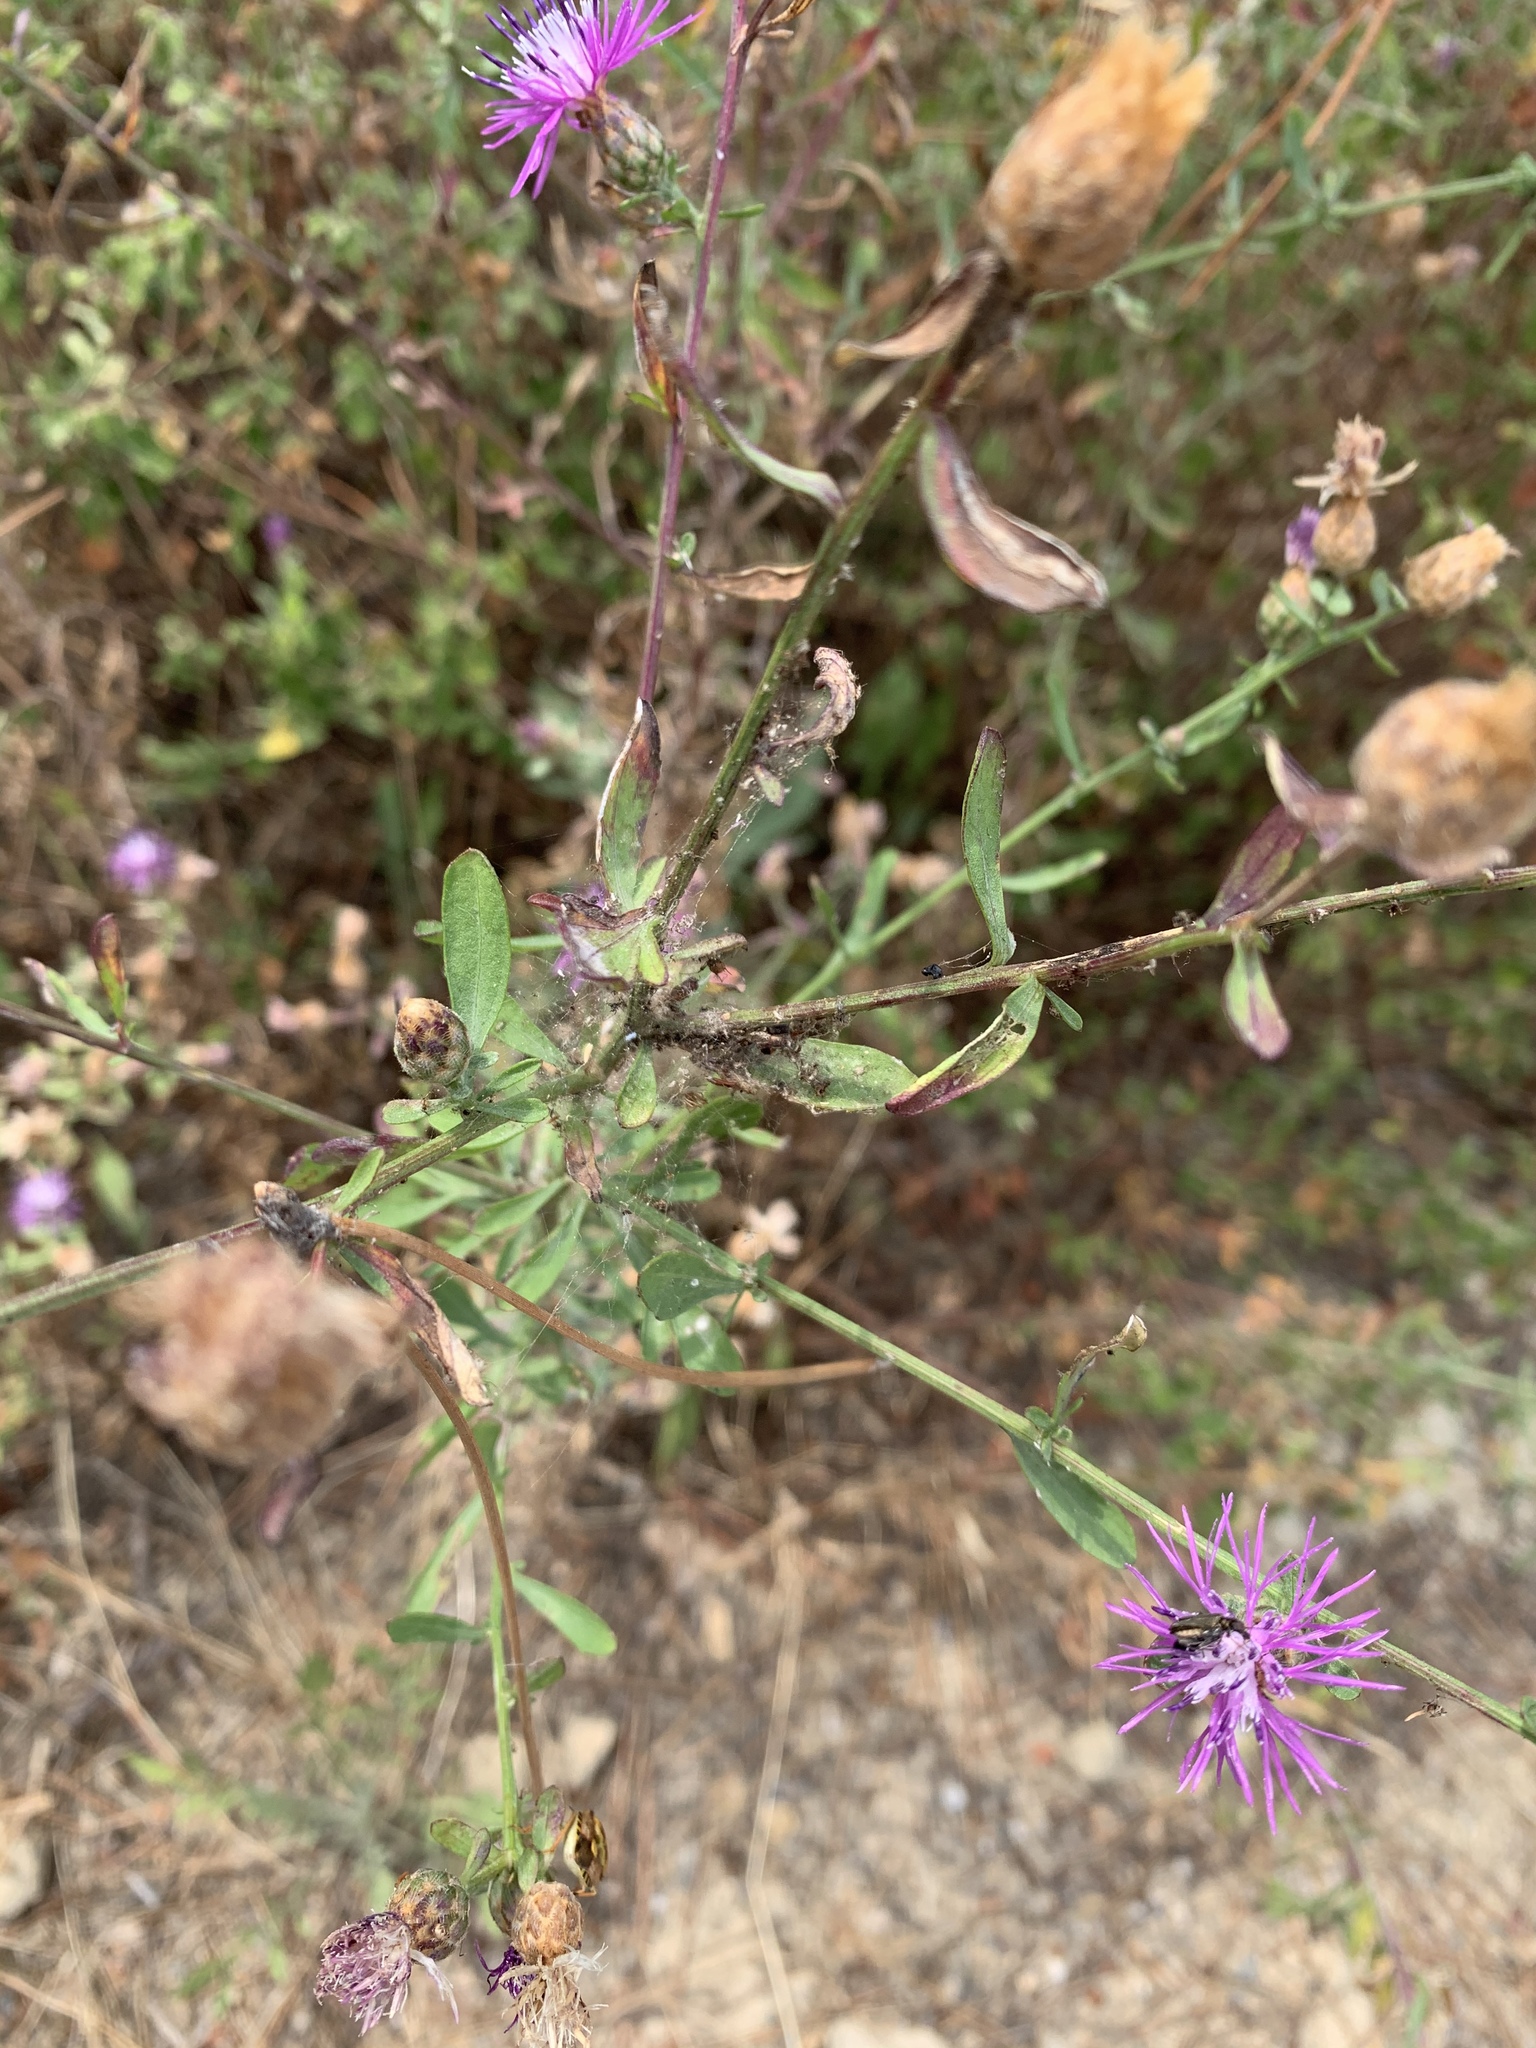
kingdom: Plantae
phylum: Tracheophyta
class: Magnoliopsida
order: Asterales
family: Asteraceae
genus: Centaurea
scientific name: Centaurea stoebe
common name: Spotted knapweed
